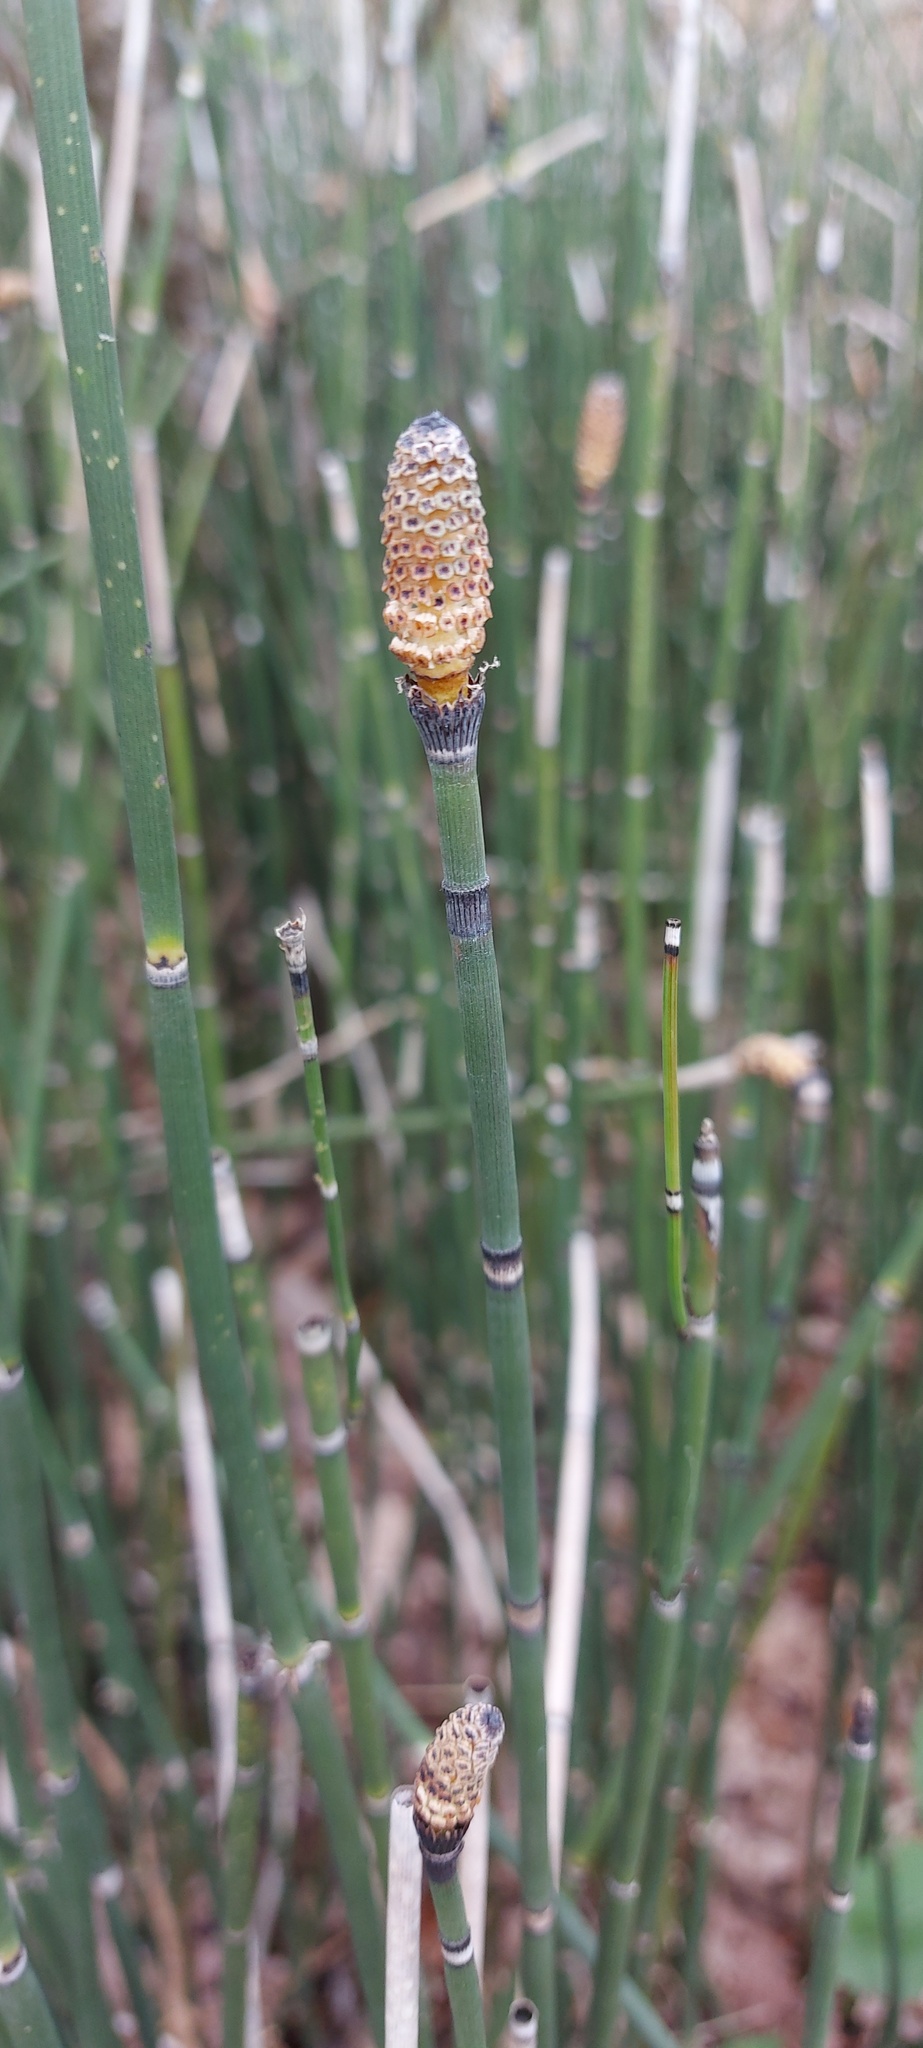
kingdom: Plantae
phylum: Tracheophyta
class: Polypodiopsida
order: Equisetales
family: Equisetaceae
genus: Equisetum
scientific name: Equisetum hyemale
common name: Rough horsetail
